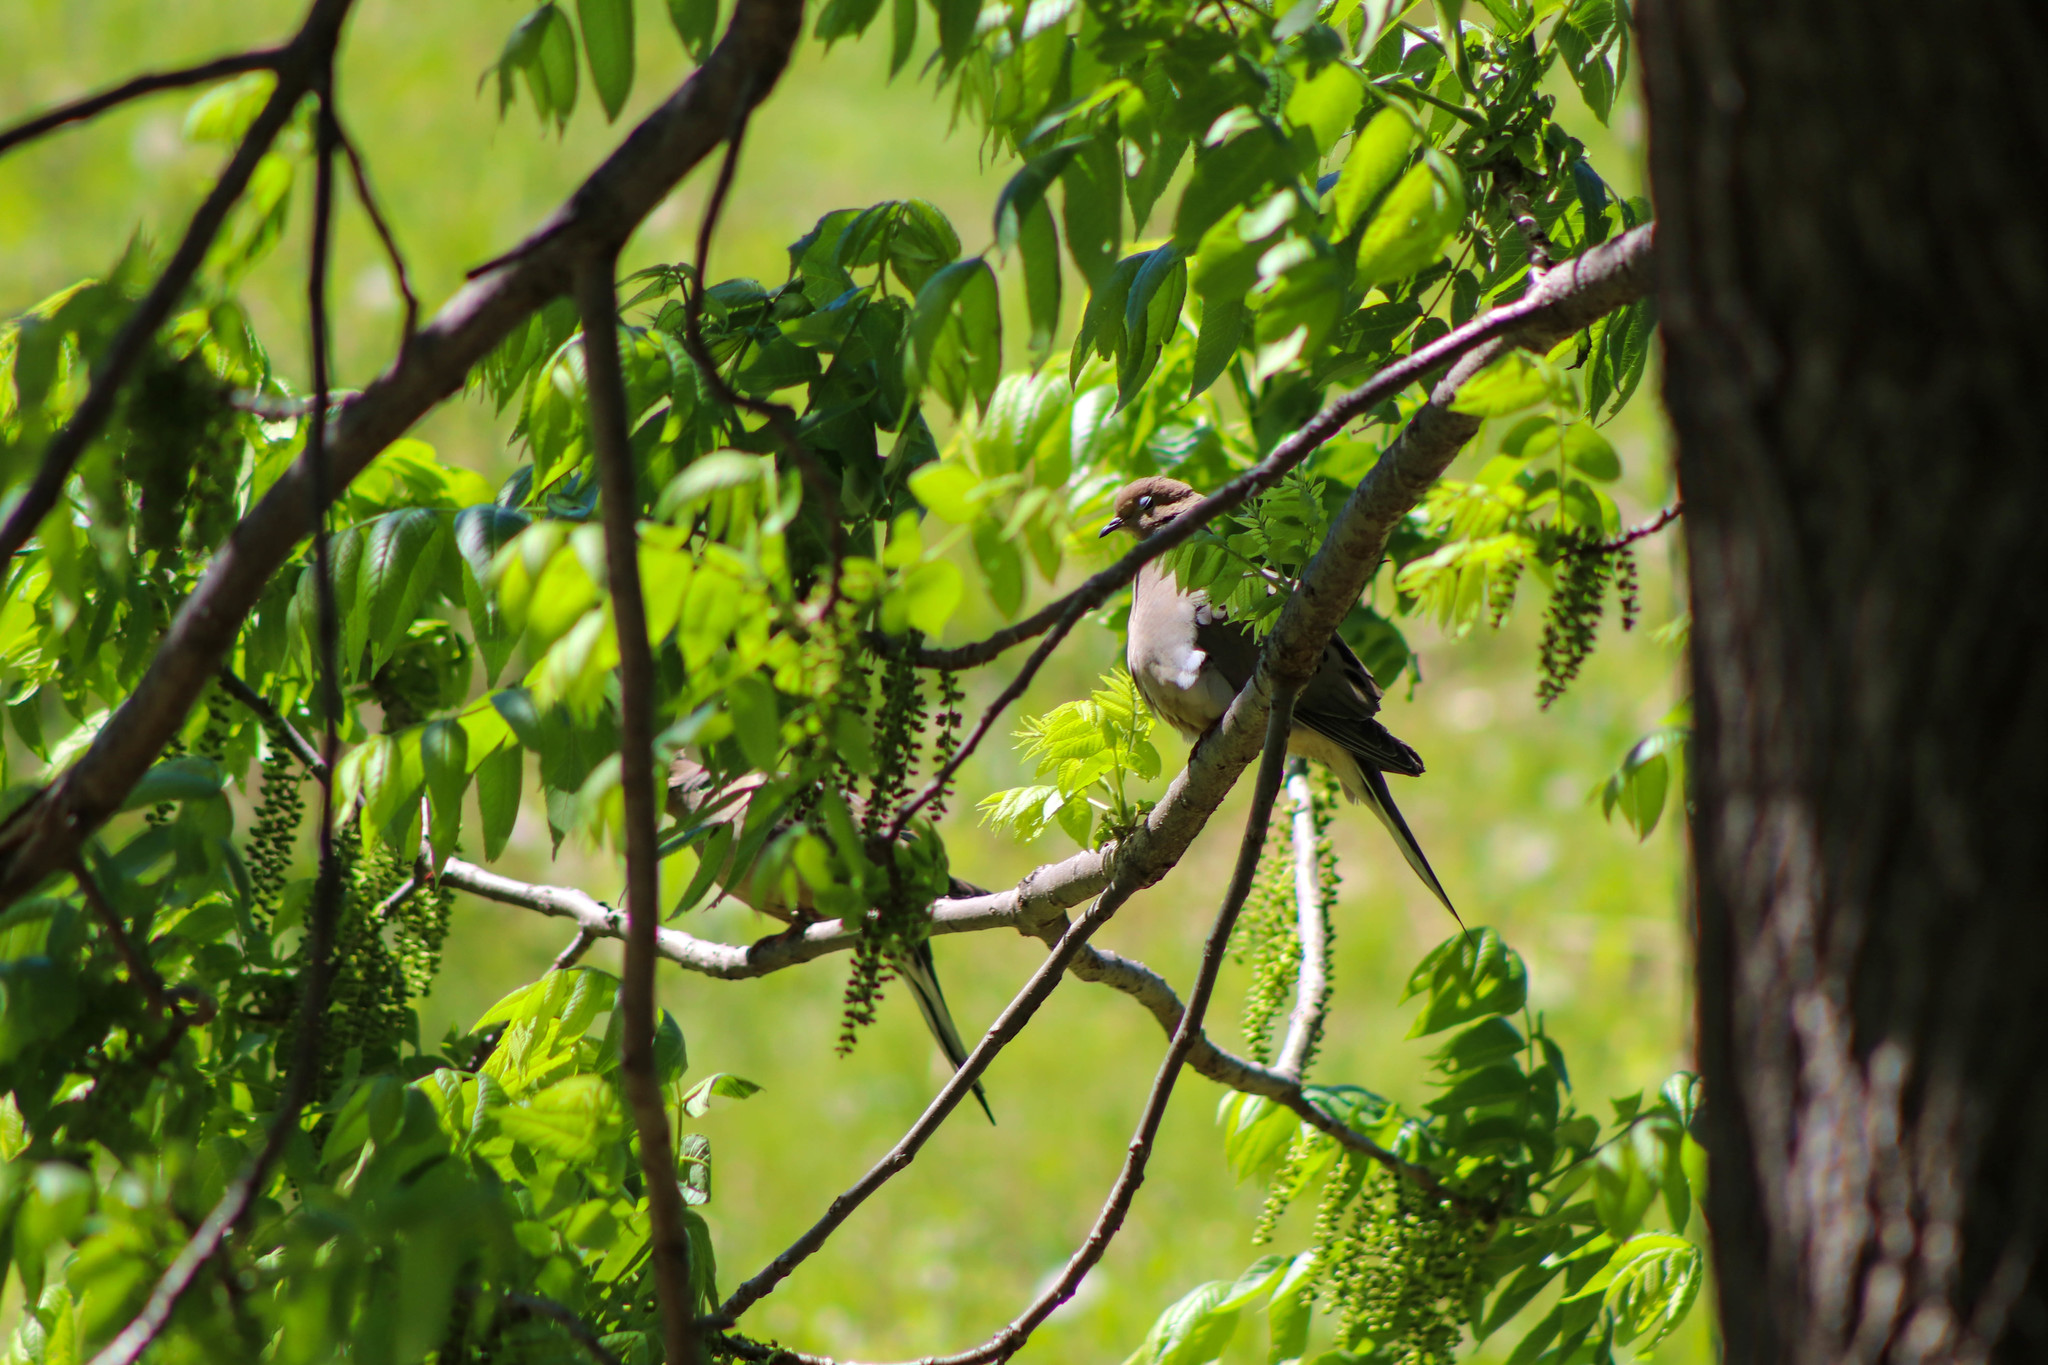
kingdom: Animalia
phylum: Chordata
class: Aves
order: Columbiformes
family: Columbidae
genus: Zenaida
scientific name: Zenaida macroura
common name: Mourning dove
